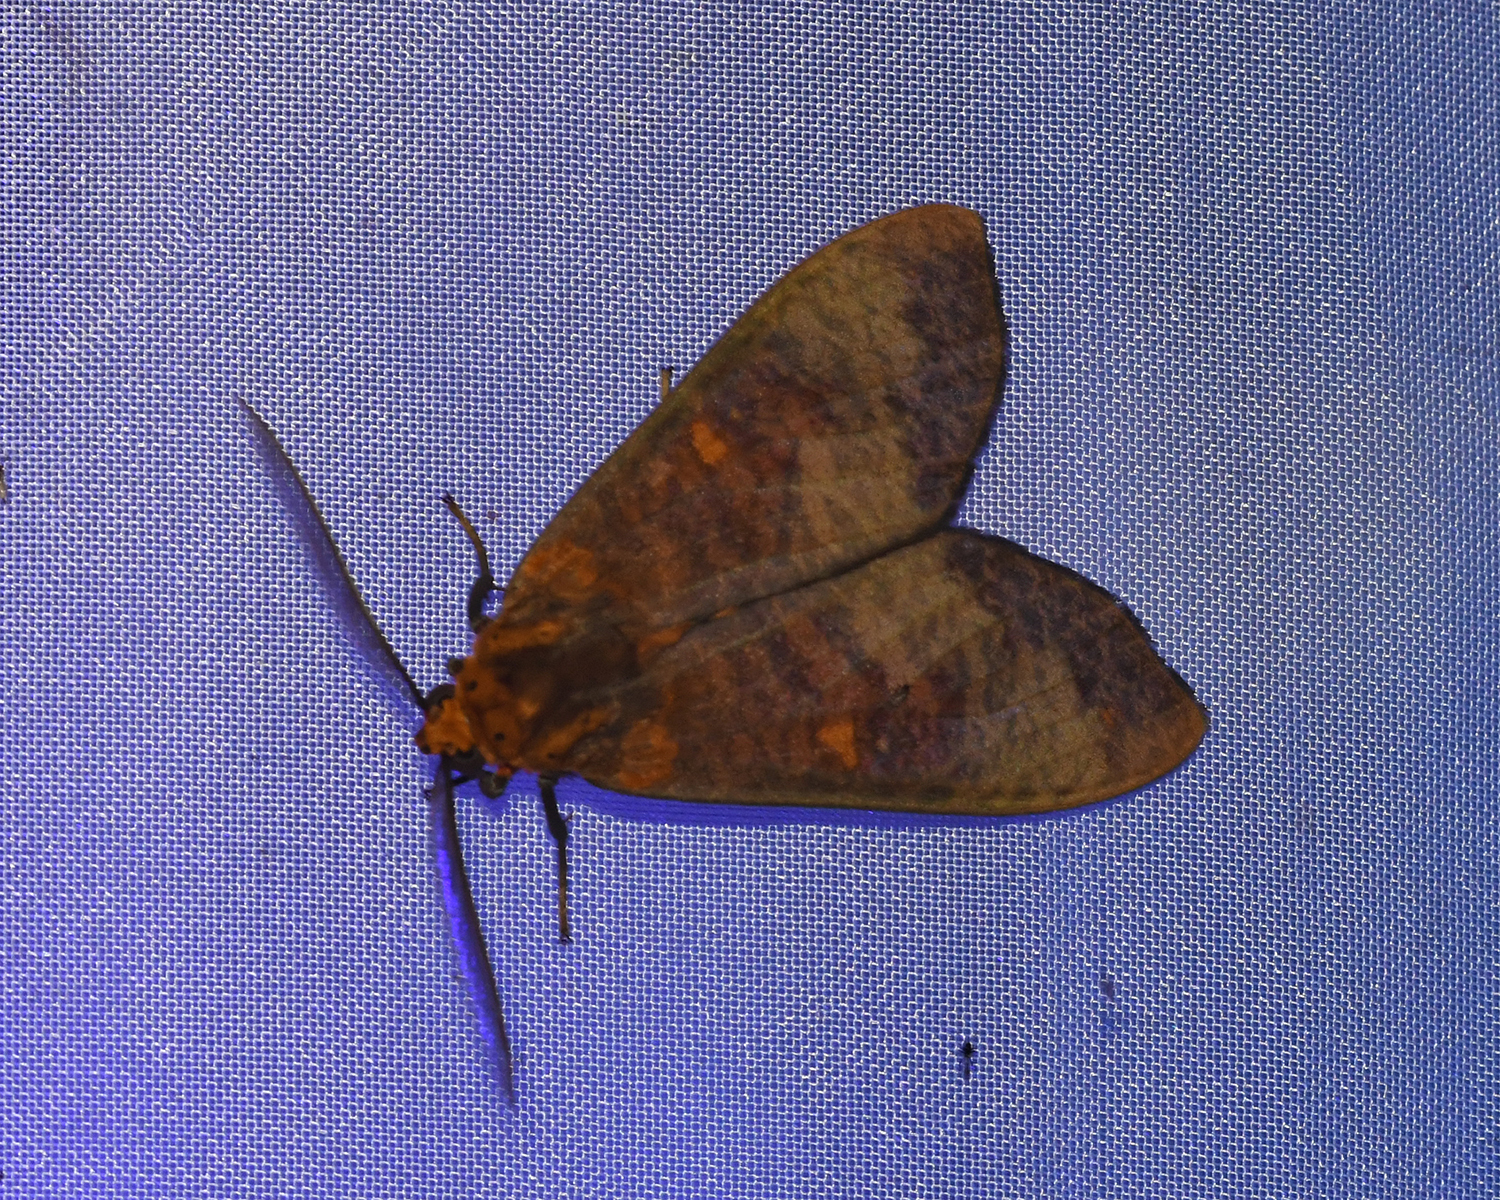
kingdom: Animalia
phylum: Arthropoda
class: Insecta
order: Lepidoptera
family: Erebidae
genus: Ammalo
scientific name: Ammalo helops
